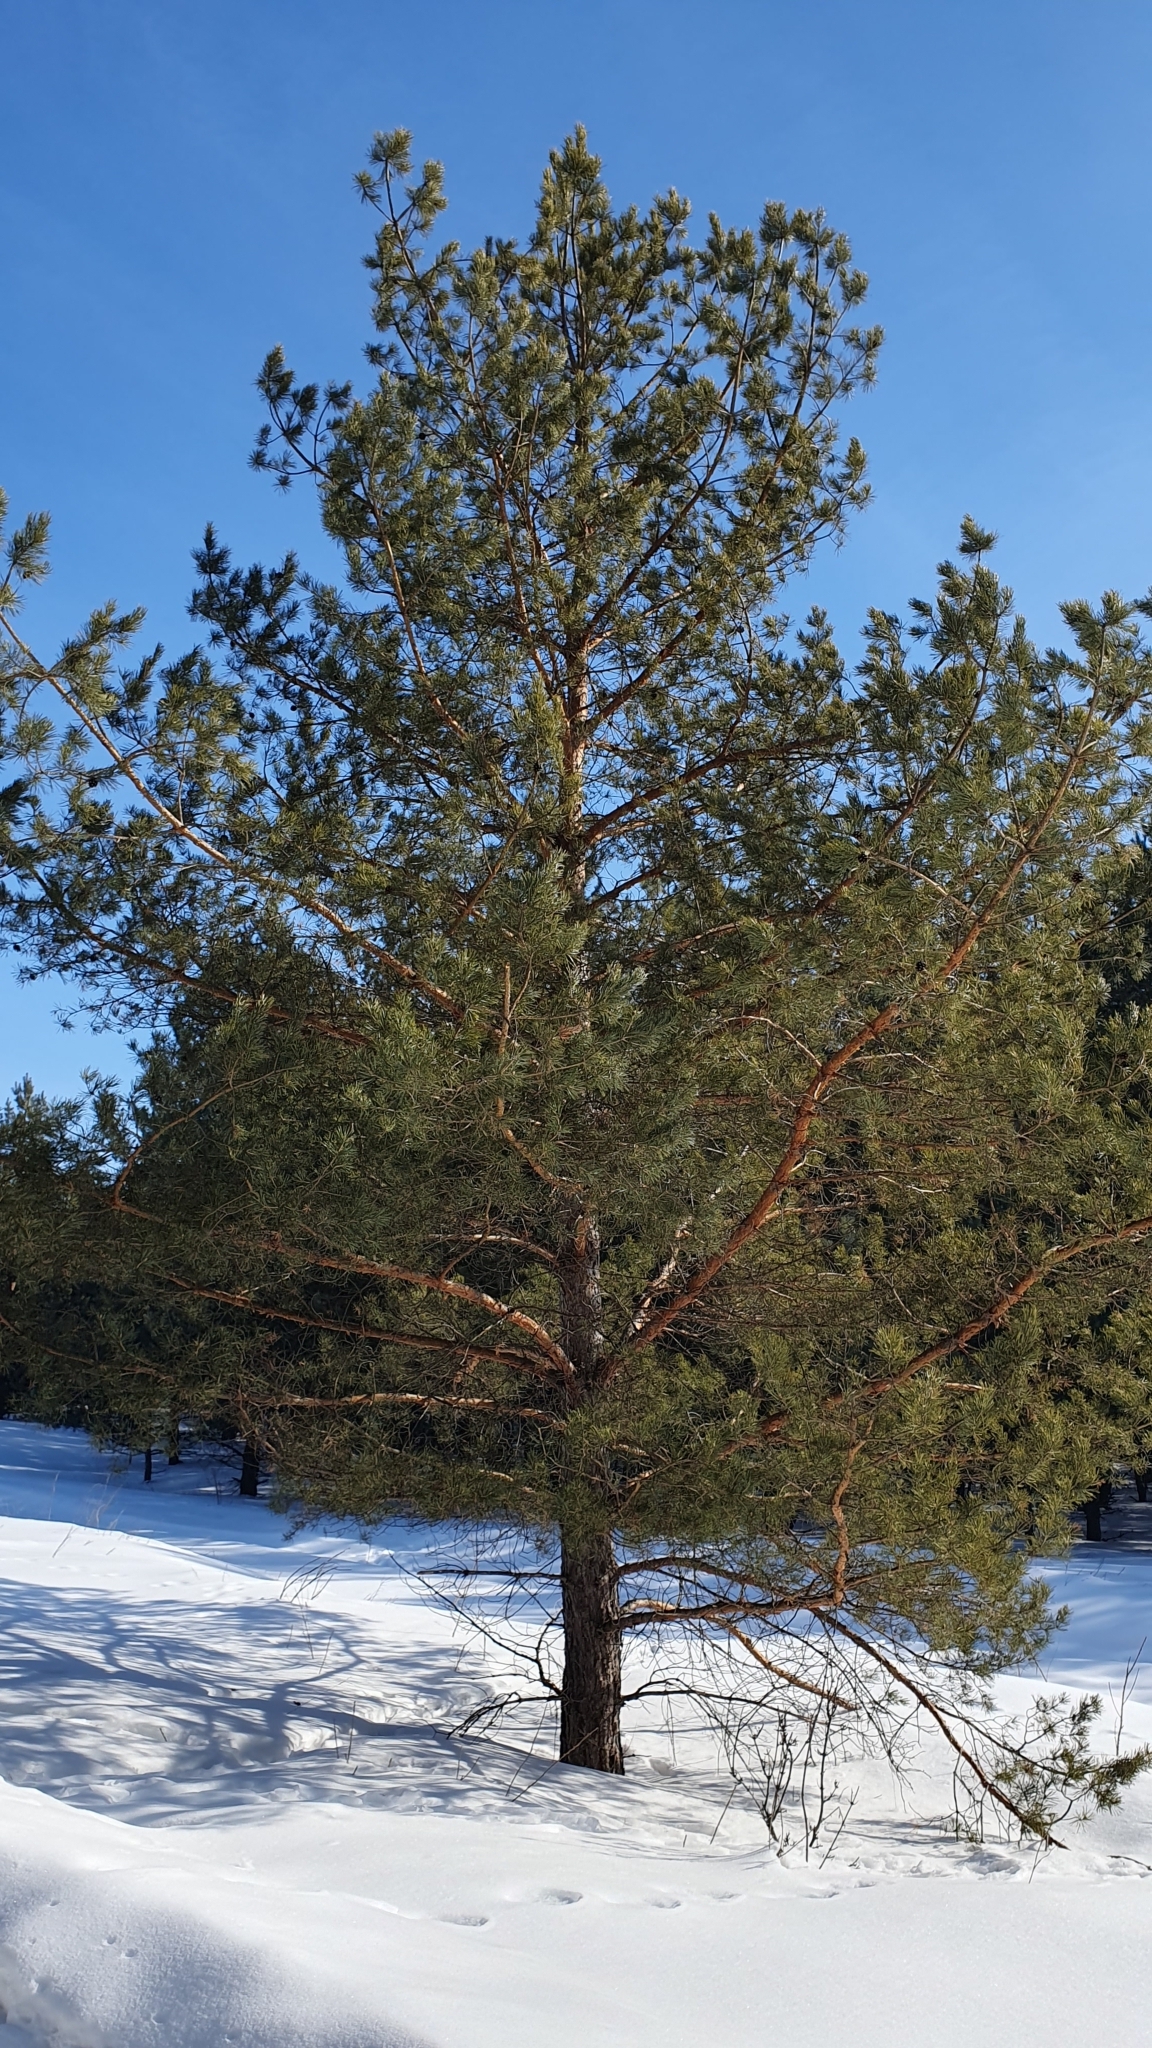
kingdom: Plantae
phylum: Tracheophyta
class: Pinopsida
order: Pinales
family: Pinaceae
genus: Pinus
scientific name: Pinus sylvestris
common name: Scots pine
